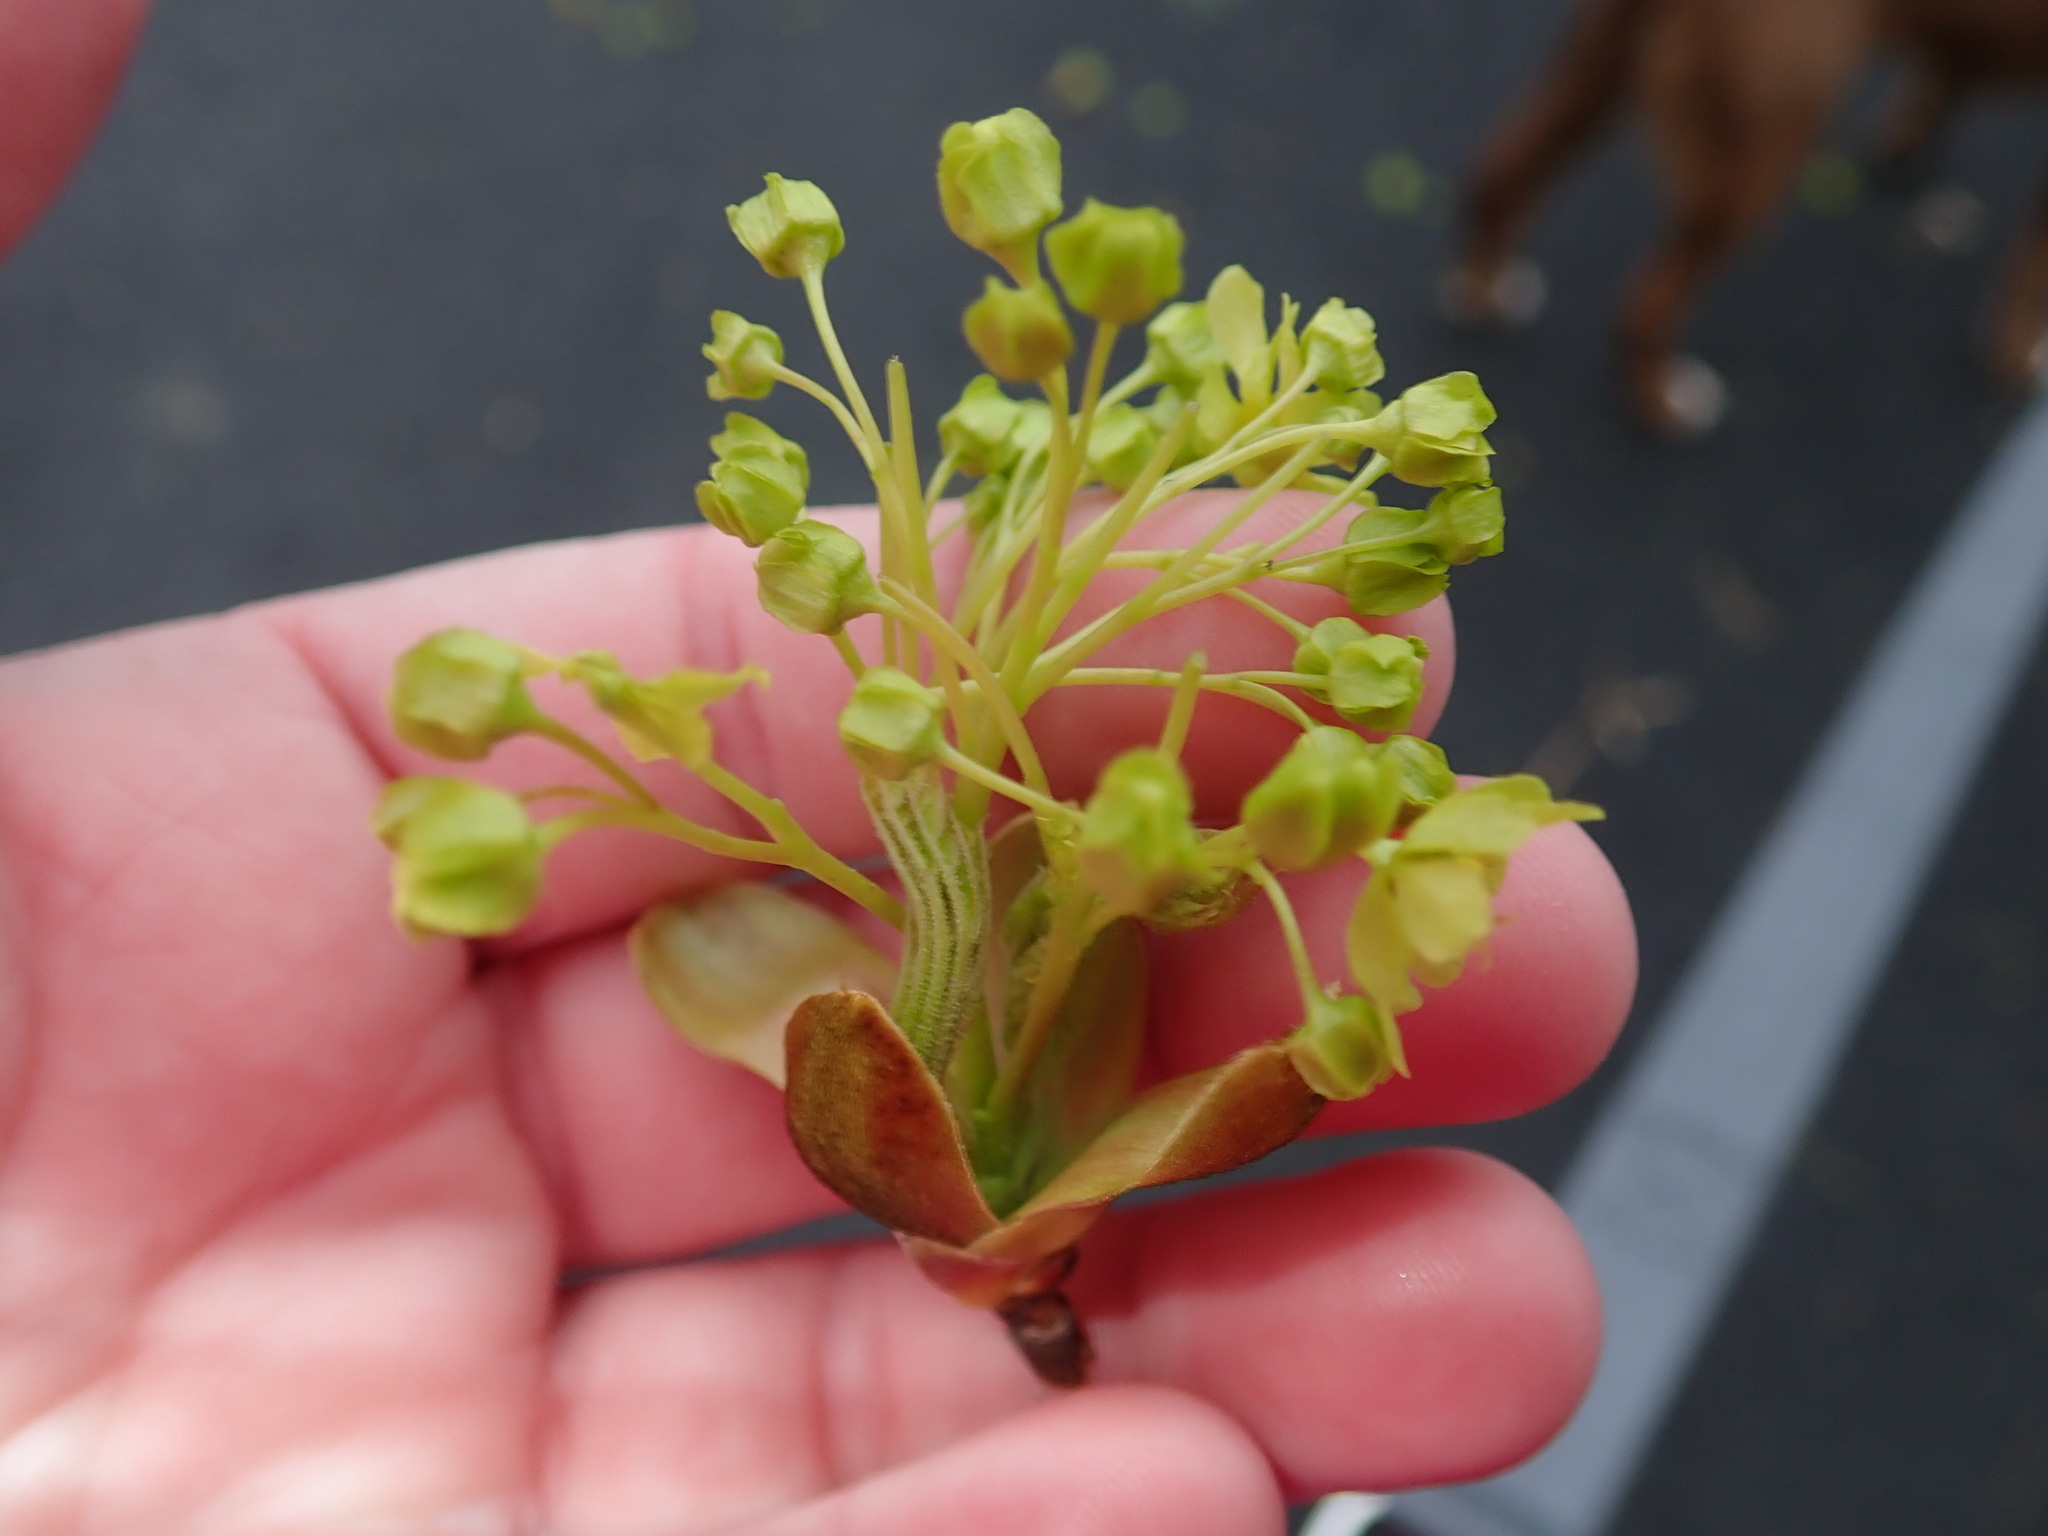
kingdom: Plantae
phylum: Tracheophyta
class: Magnoliopsida
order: Sapindales
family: Sapindaceae
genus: Acer
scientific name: Acer platanoides
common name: Norway maple
